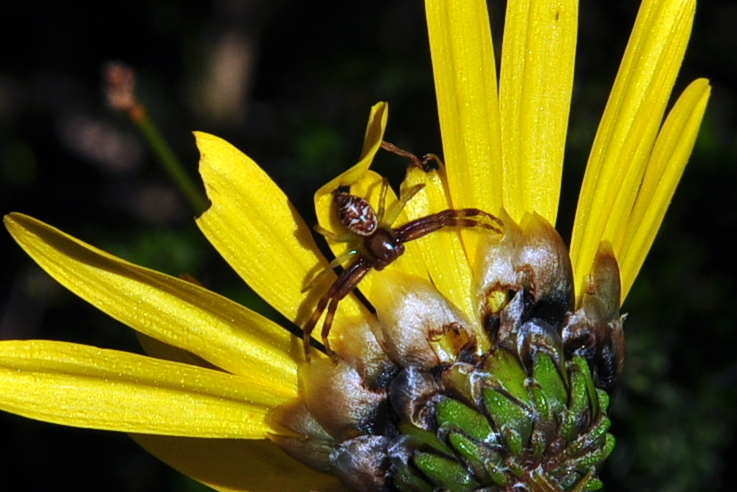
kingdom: Animalia
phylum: Arthropoda
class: Arachnida
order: Araneae
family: Thomisidae
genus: Synema
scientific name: Synema imitatrix
